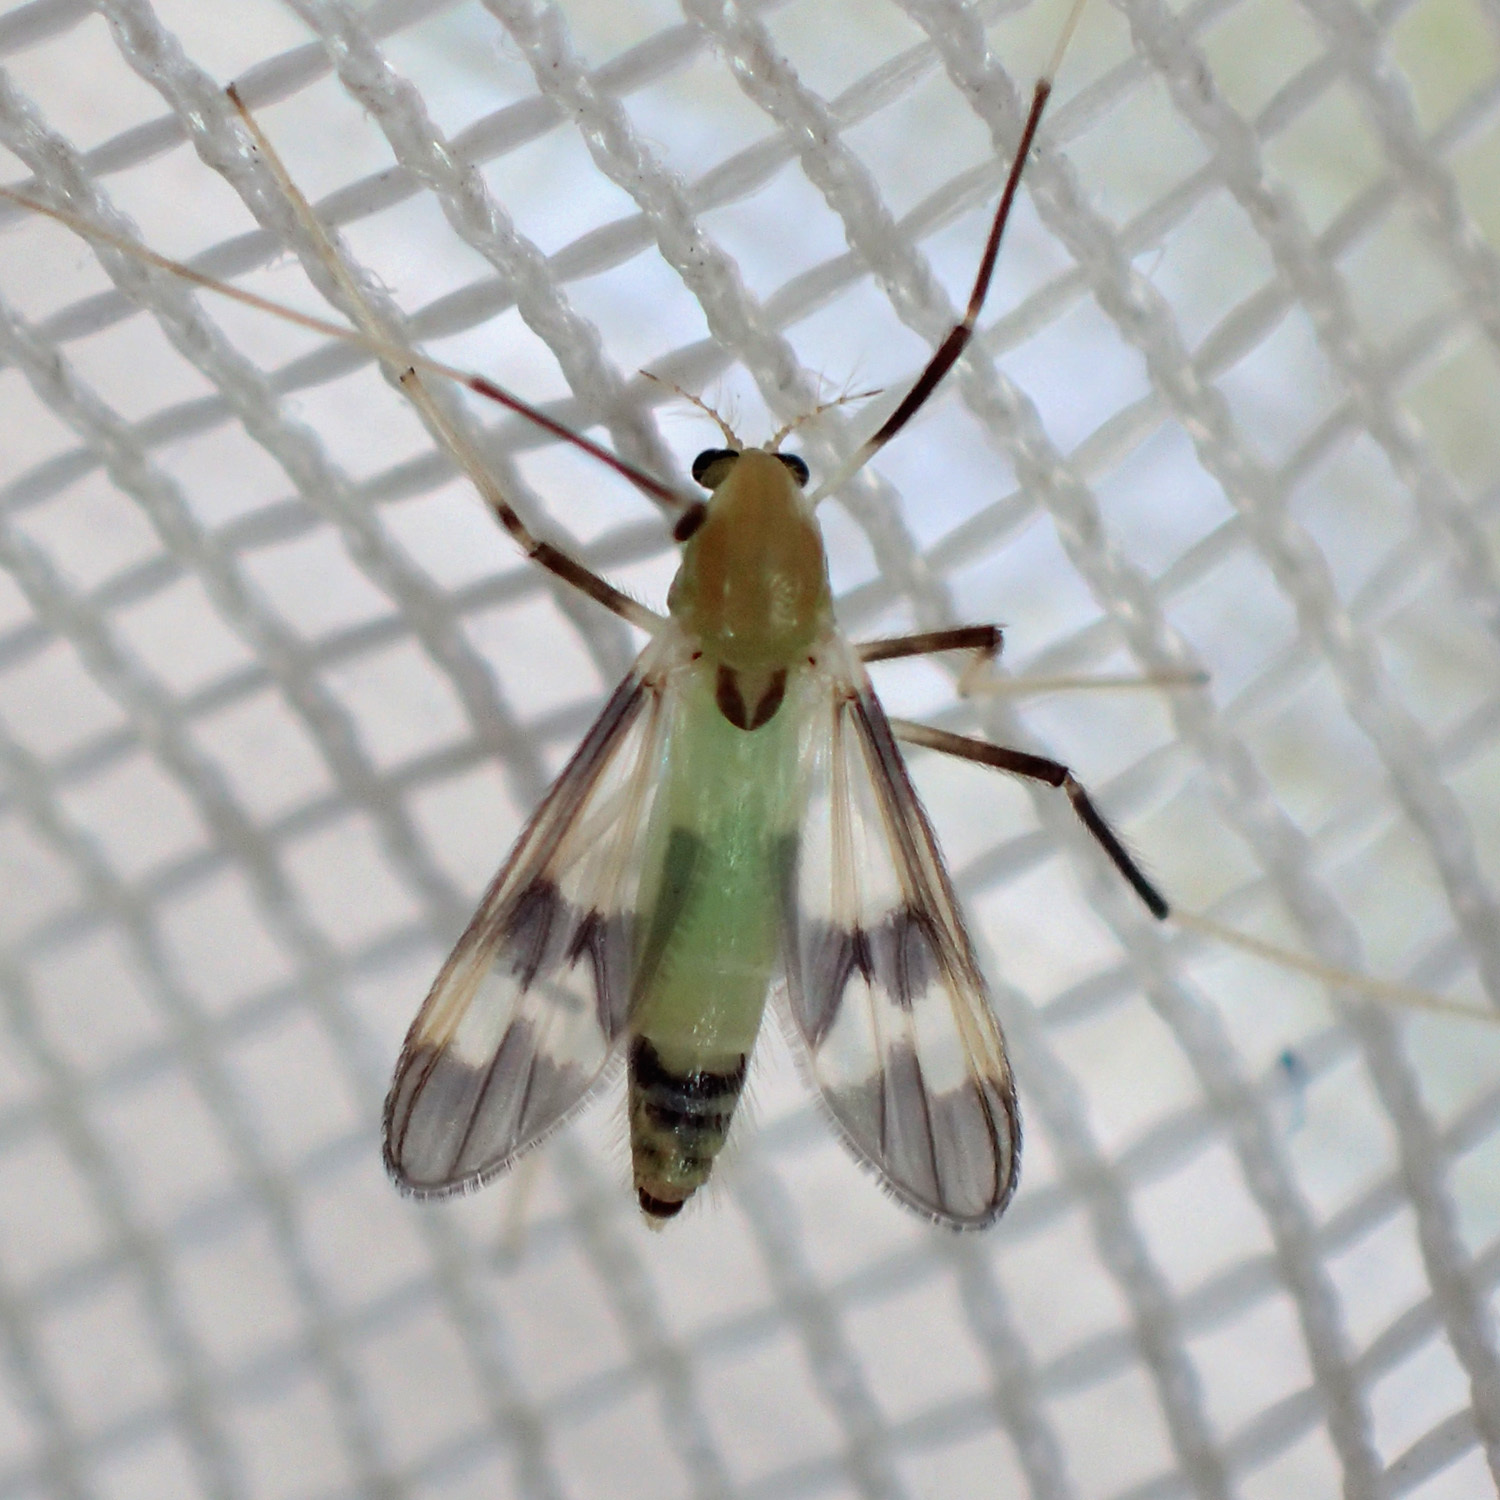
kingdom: Animalia
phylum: Arthropoda
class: Insecta
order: Diptera
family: Chironomidae
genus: Stenochironomus
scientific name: Stenochironomus hilaris
